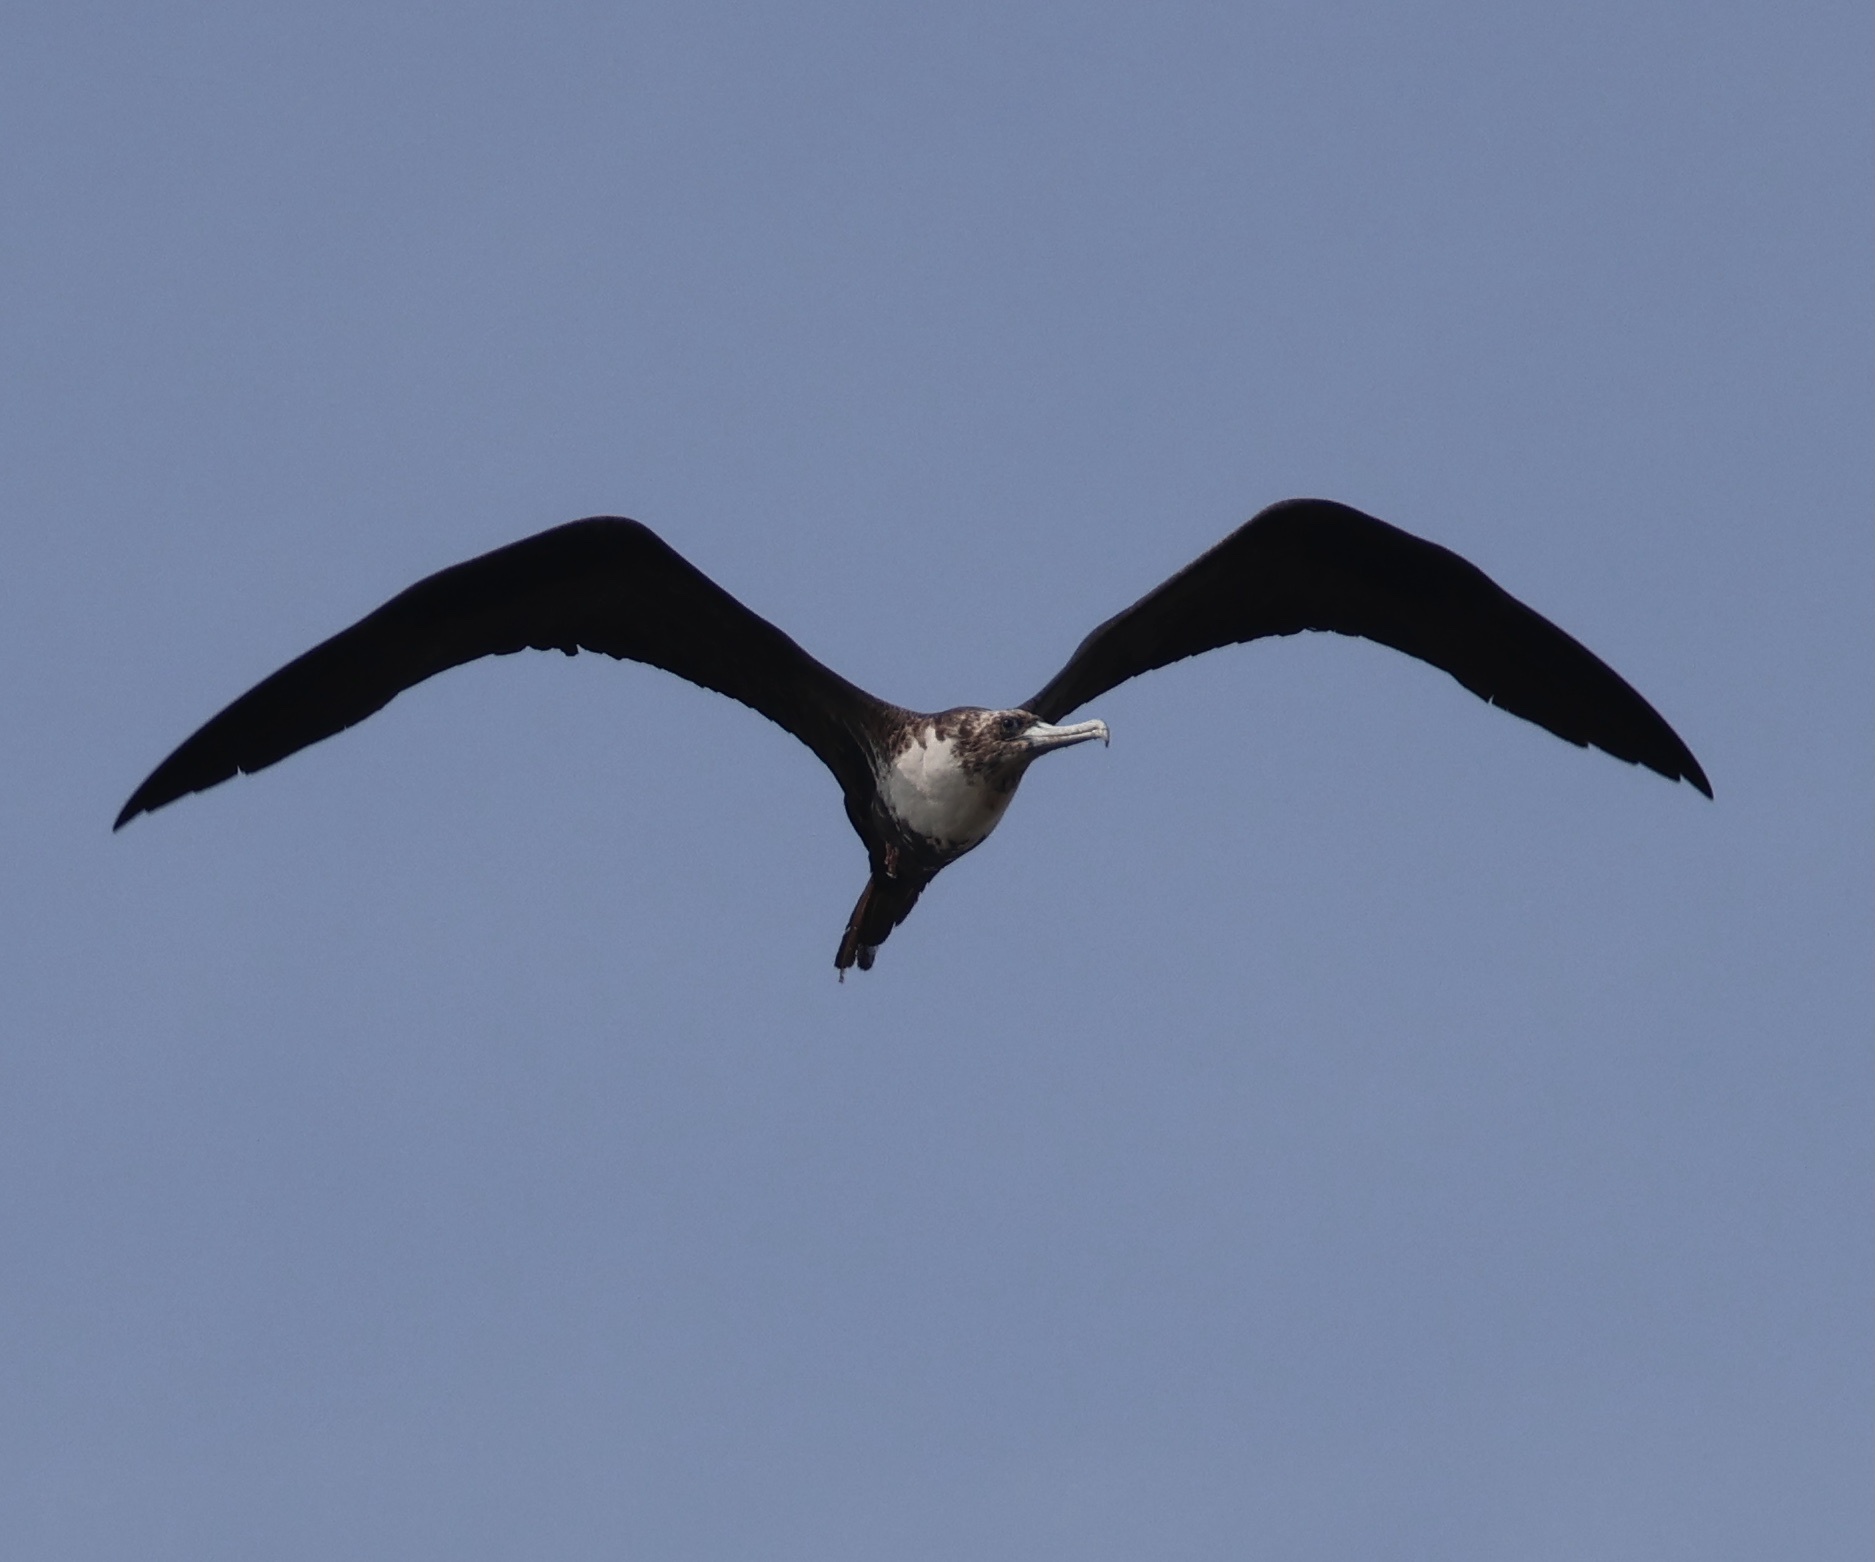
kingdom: Animalia
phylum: Chordata
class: Aves
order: Suliformes
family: Fregatidae
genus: Fregata
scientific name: Fregata magnificens
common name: Magnificent frigatebird
